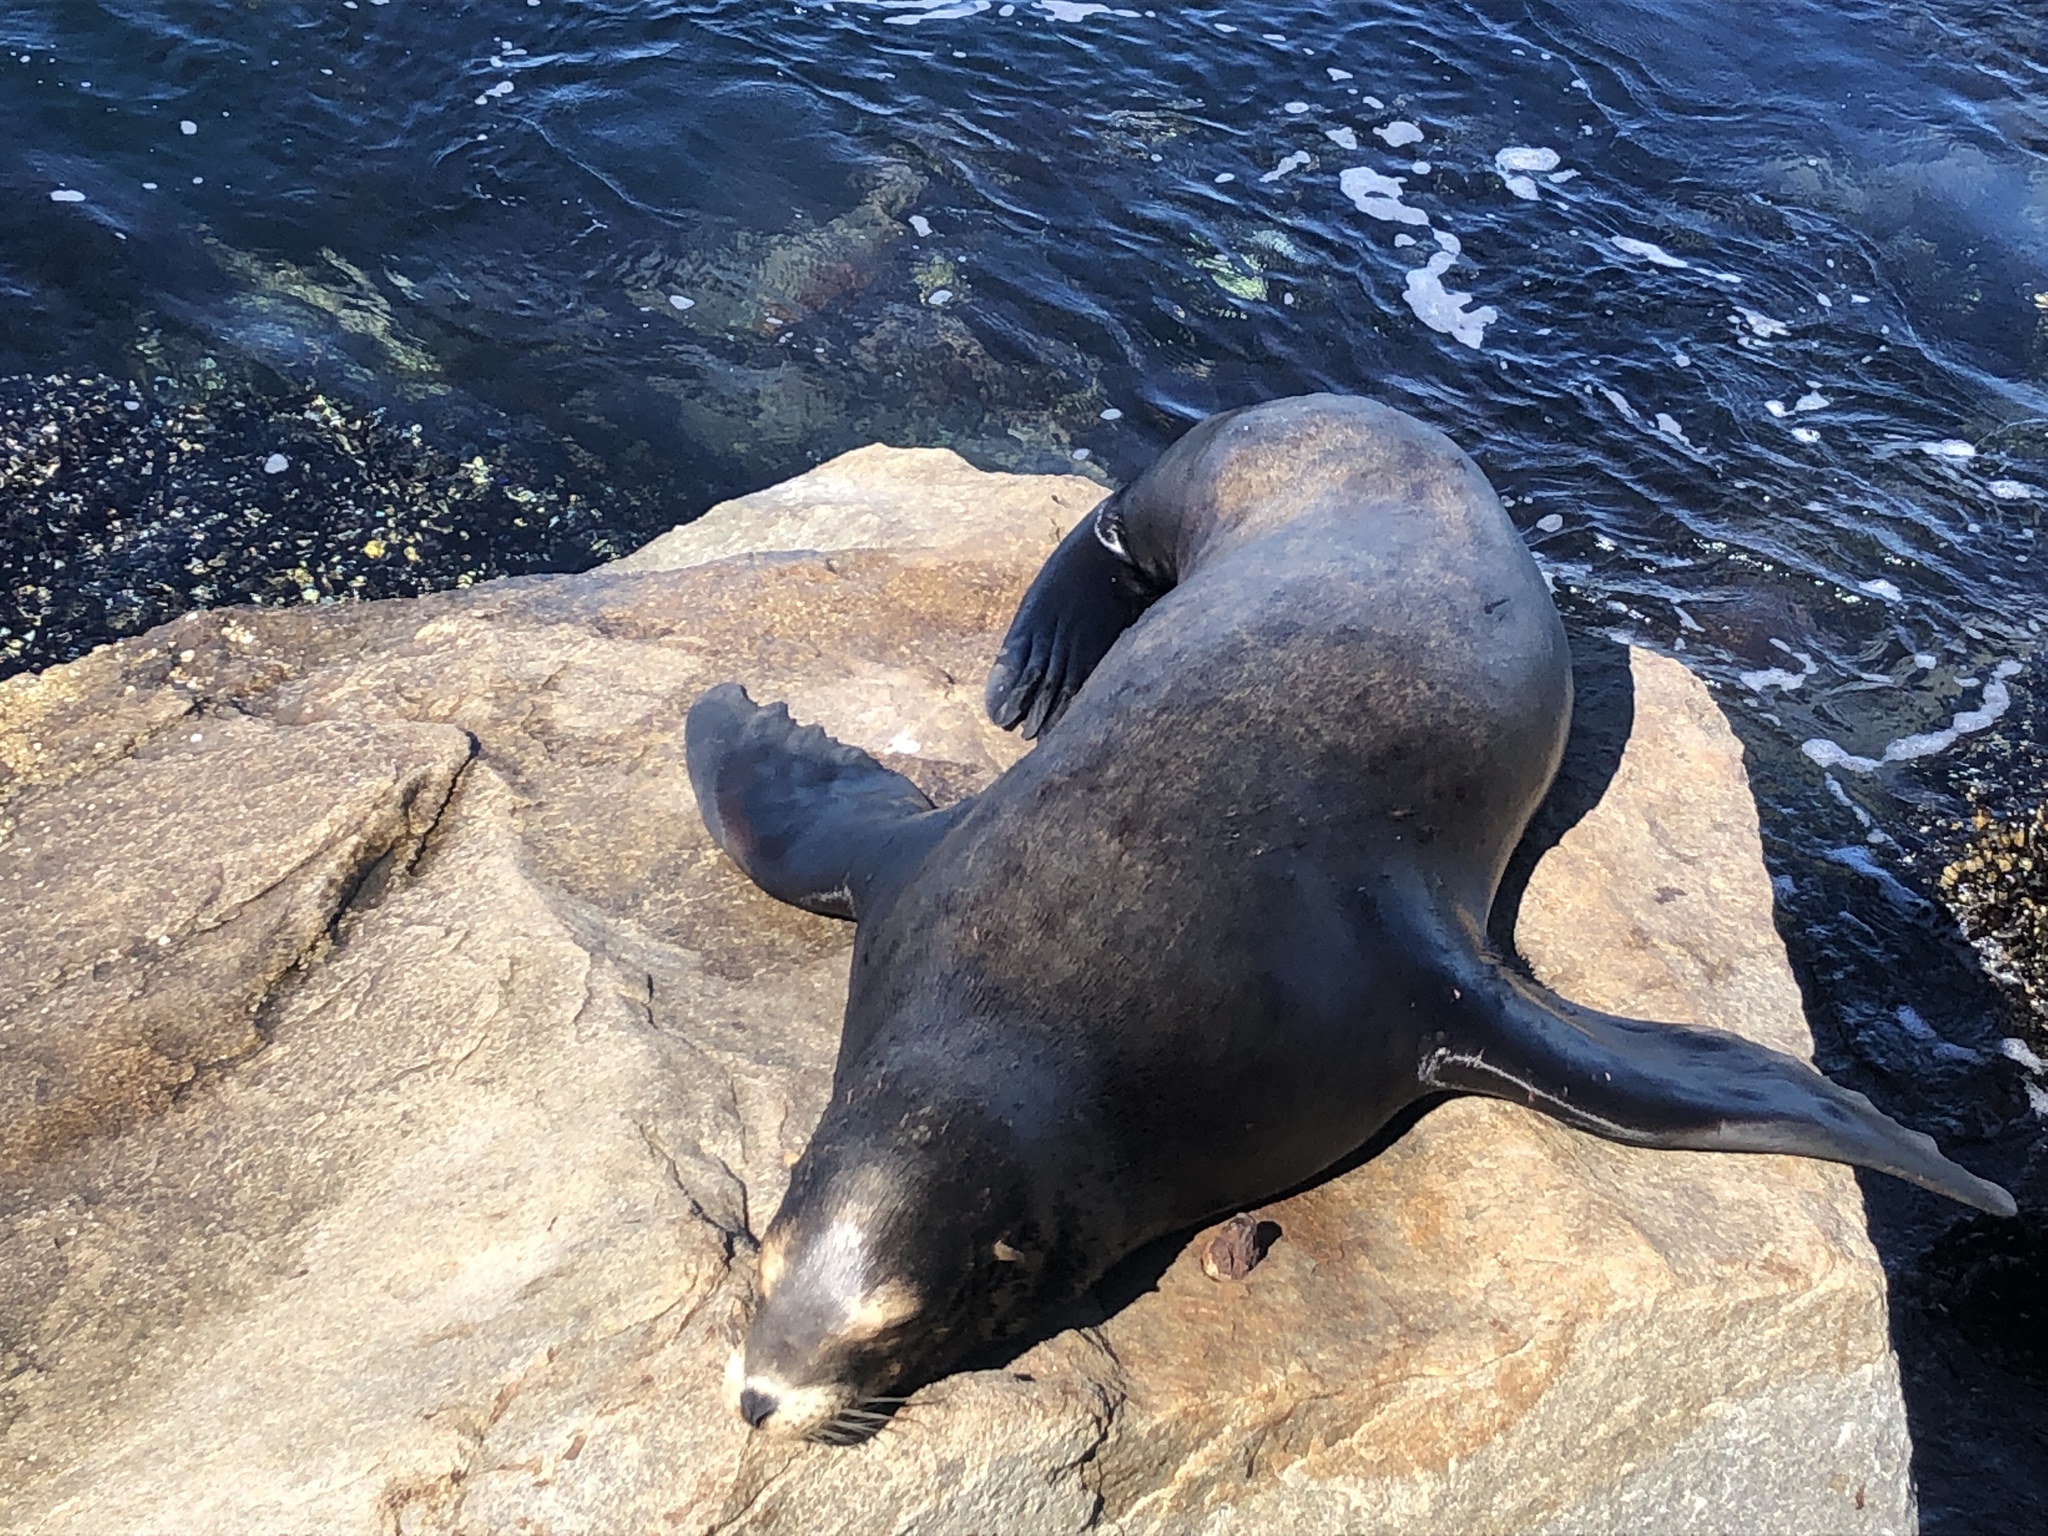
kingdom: Animalia
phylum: Chordata
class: Mammalia
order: Carnivora
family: Otariidae
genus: Zalophus
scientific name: Zalophus californianus
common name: California sea lion
